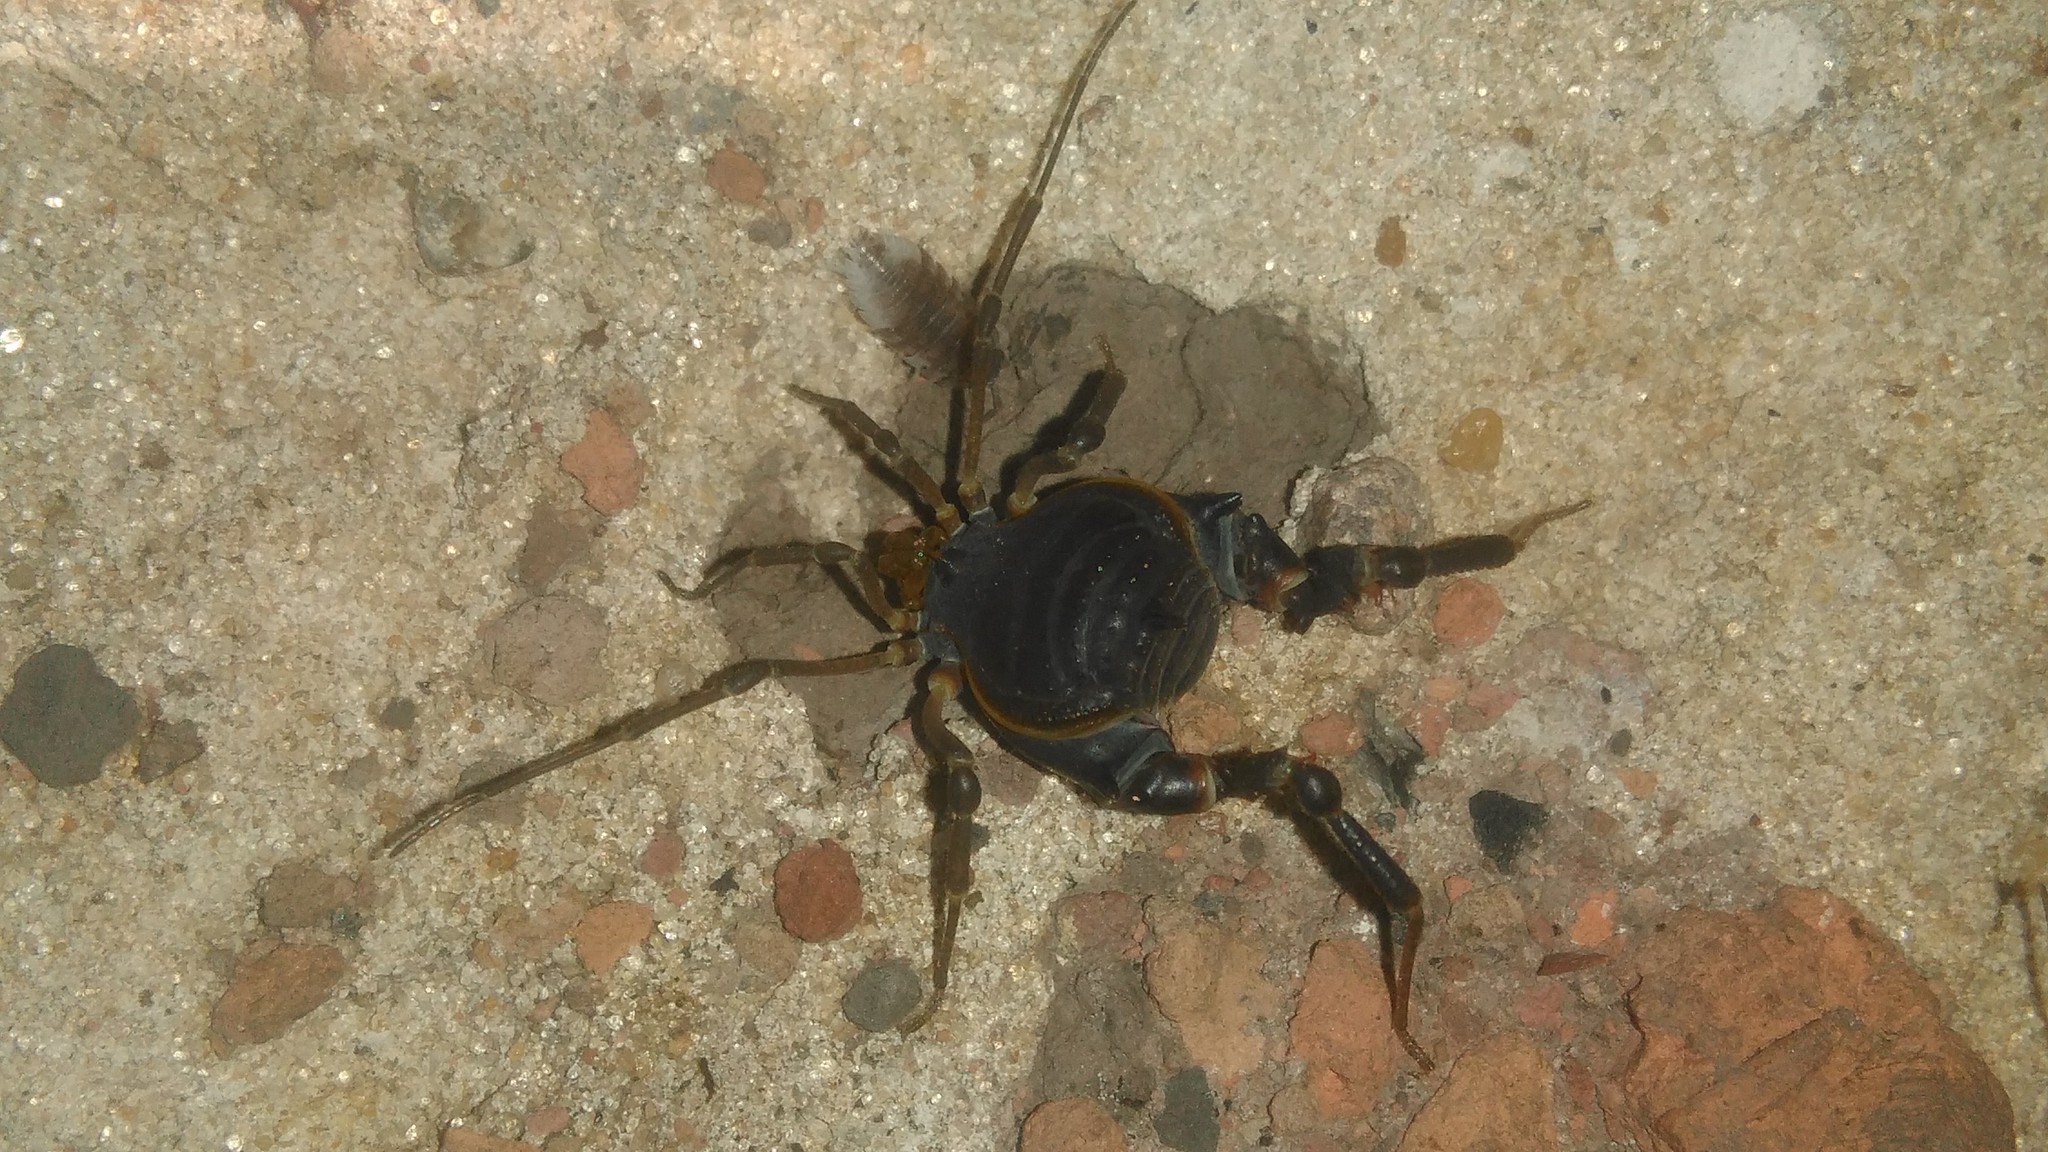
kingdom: Animalia
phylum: Arthropoda
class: Arachnida
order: Opiliones
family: Gonyleptidae
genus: Acanthopachylus
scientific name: Acanthopachylus robustus
